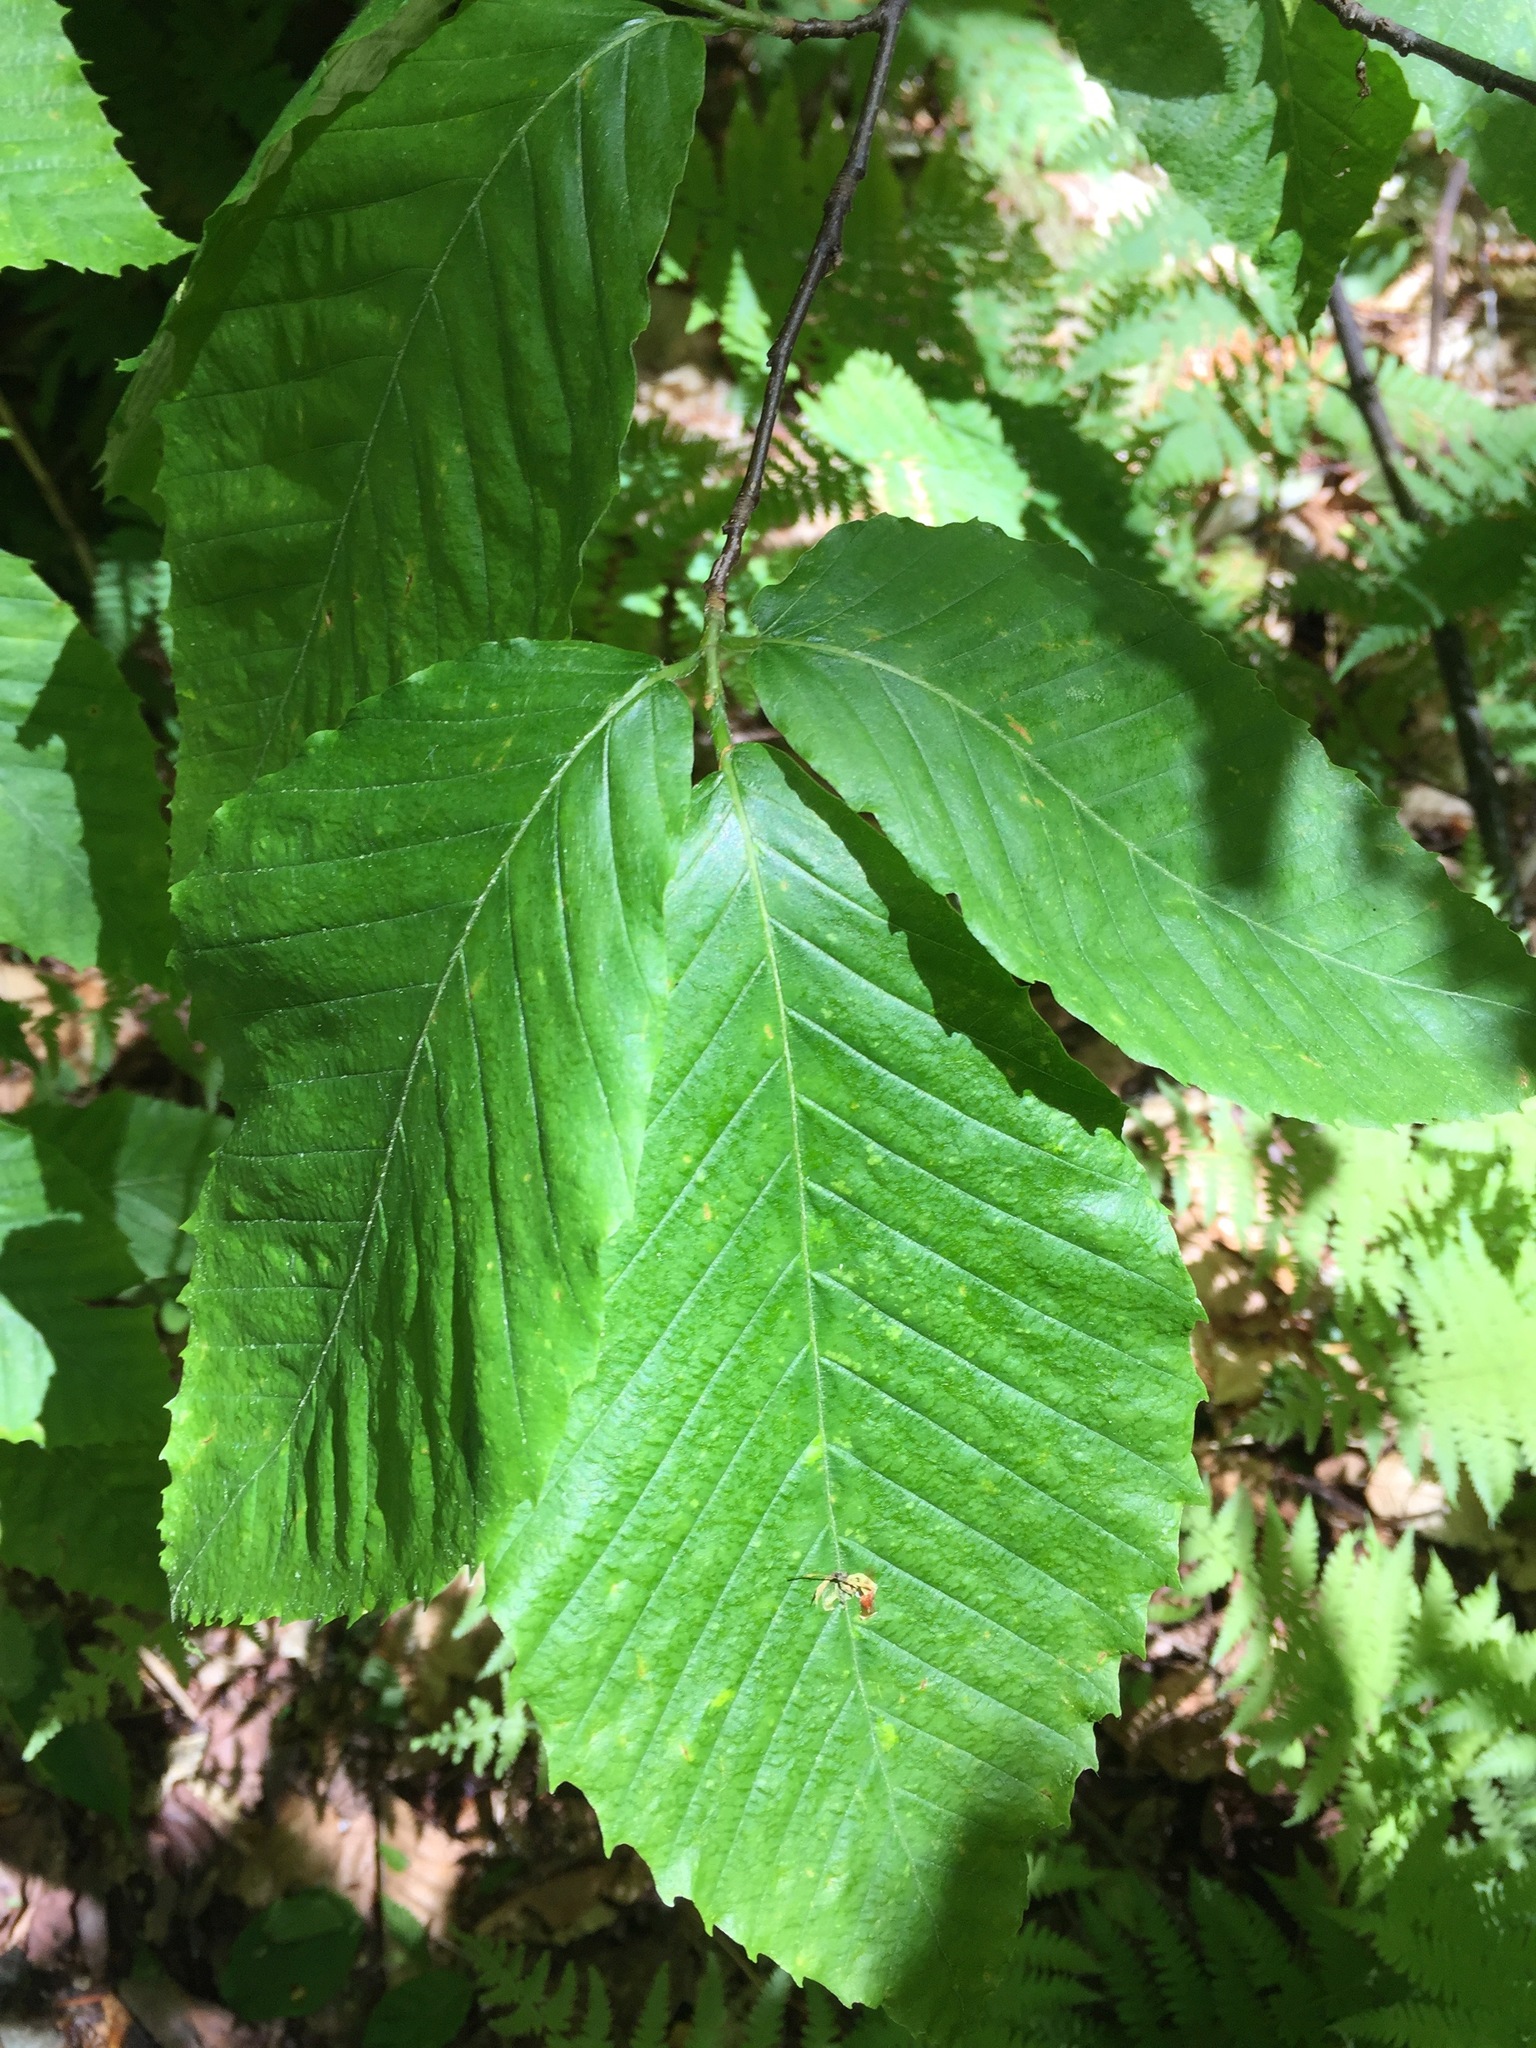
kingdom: Plantae
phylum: Tracheophyta
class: Magnoliopsida
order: Fagales
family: Fagaceae
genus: Fagus
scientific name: Fagus grandifolia
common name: American beech
